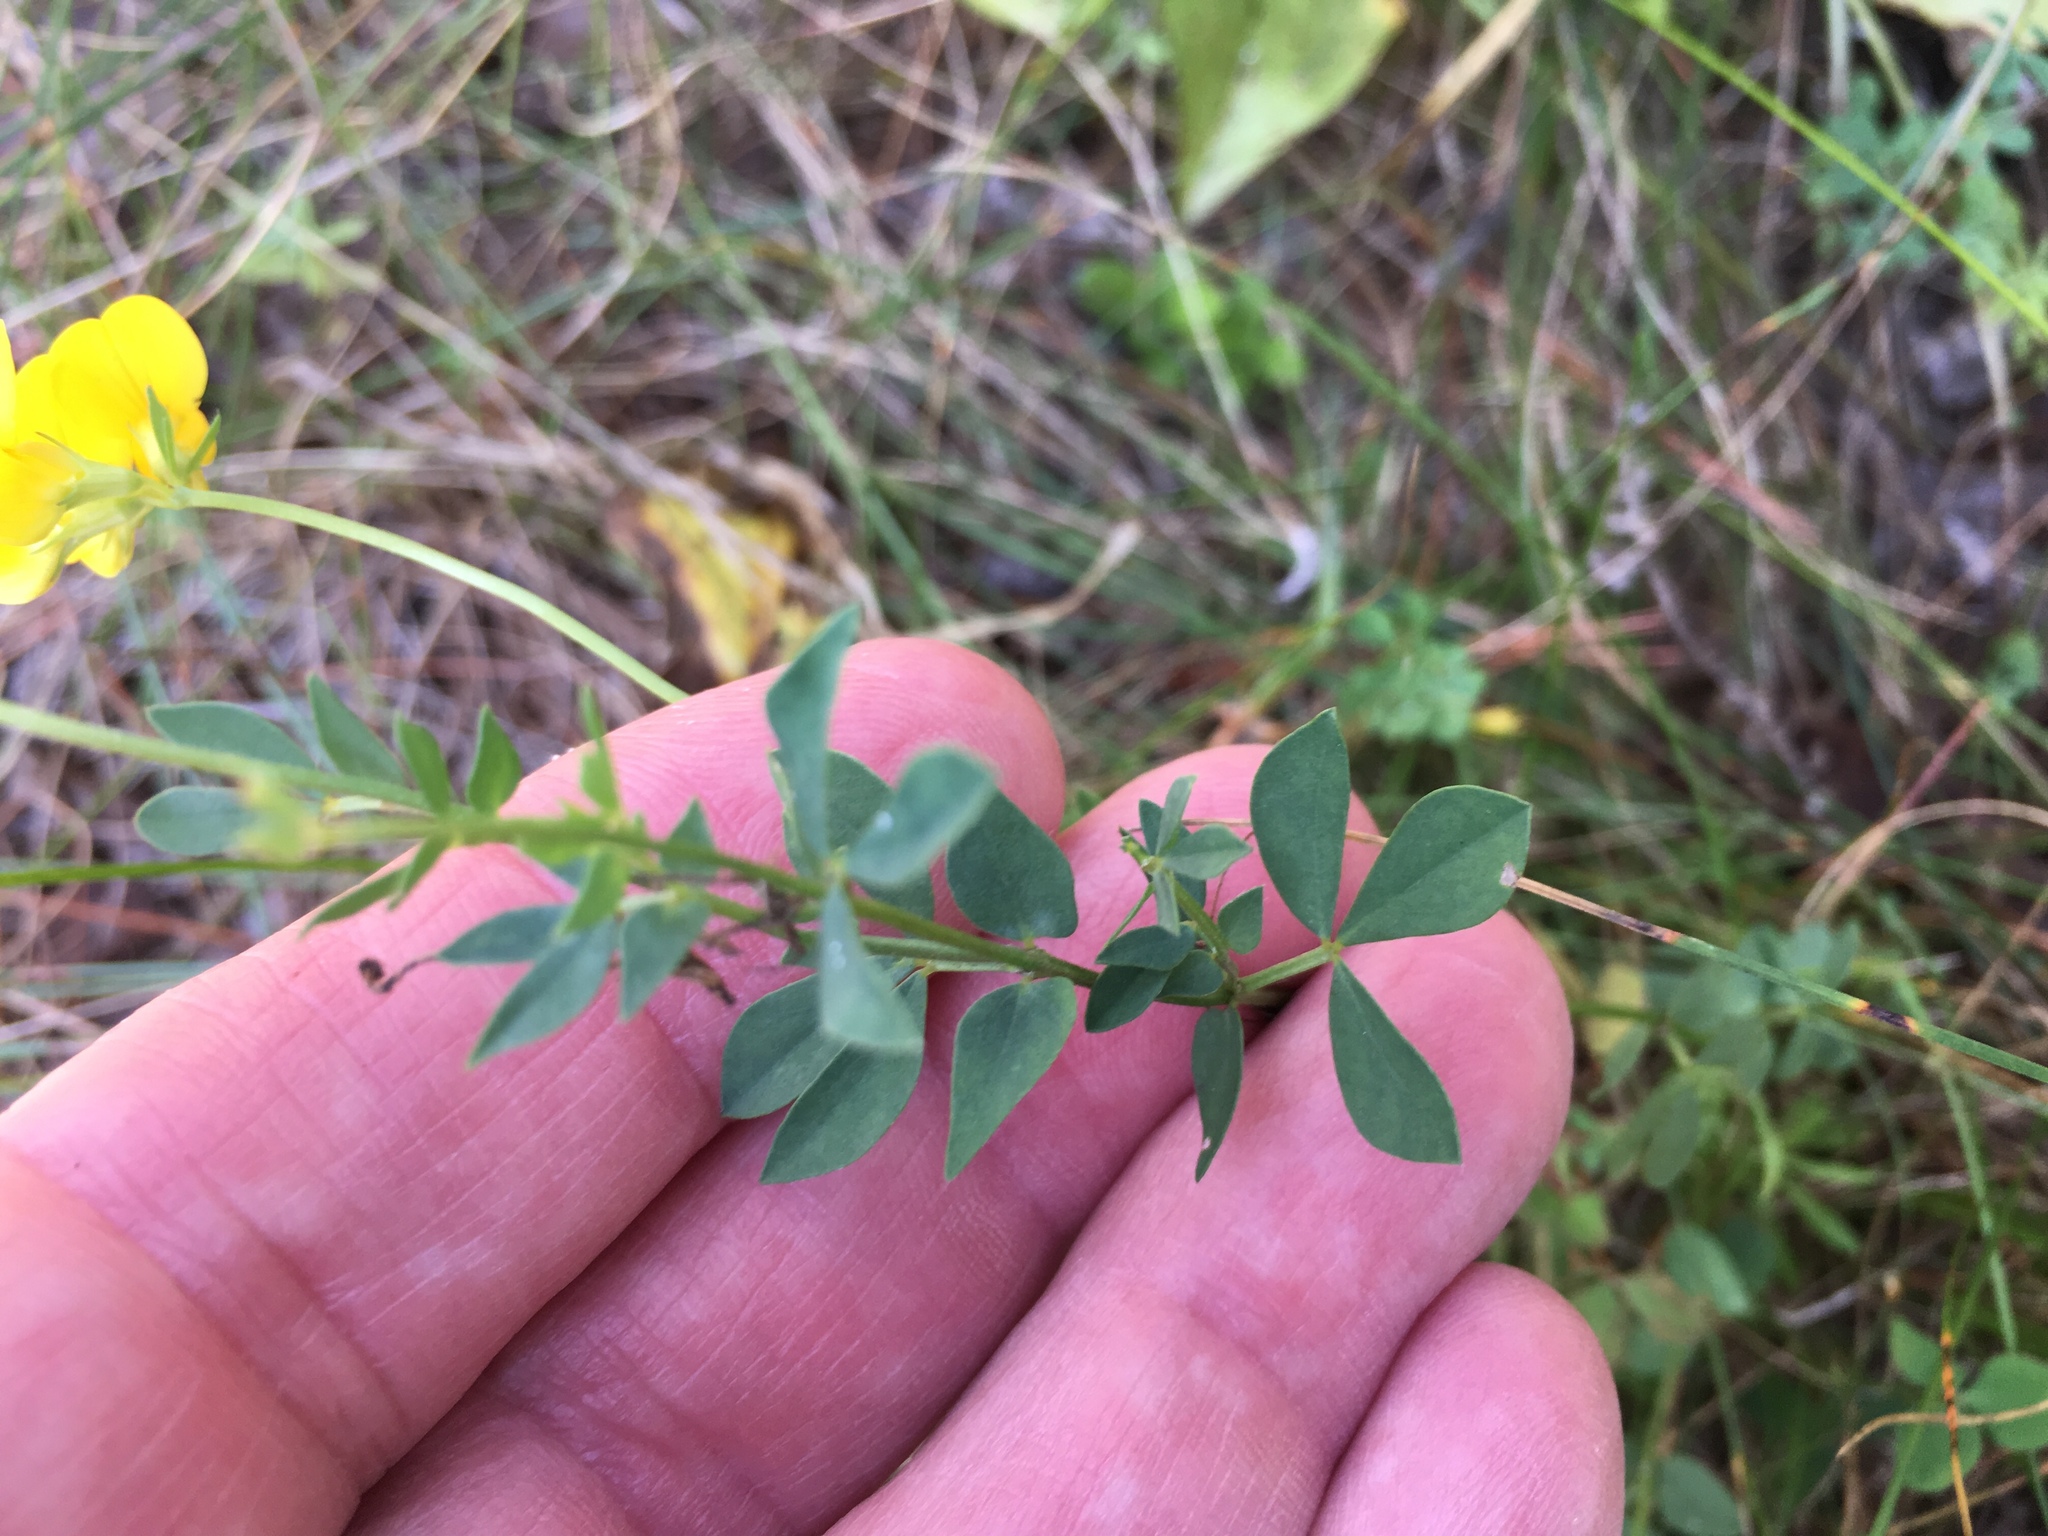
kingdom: Plantae
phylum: Tracheophyta
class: Magnoliopsida
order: Fabales
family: Fabaceae
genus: Lotus
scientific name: Lotus corniculatus
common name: Common bird's-foot-trefoil
